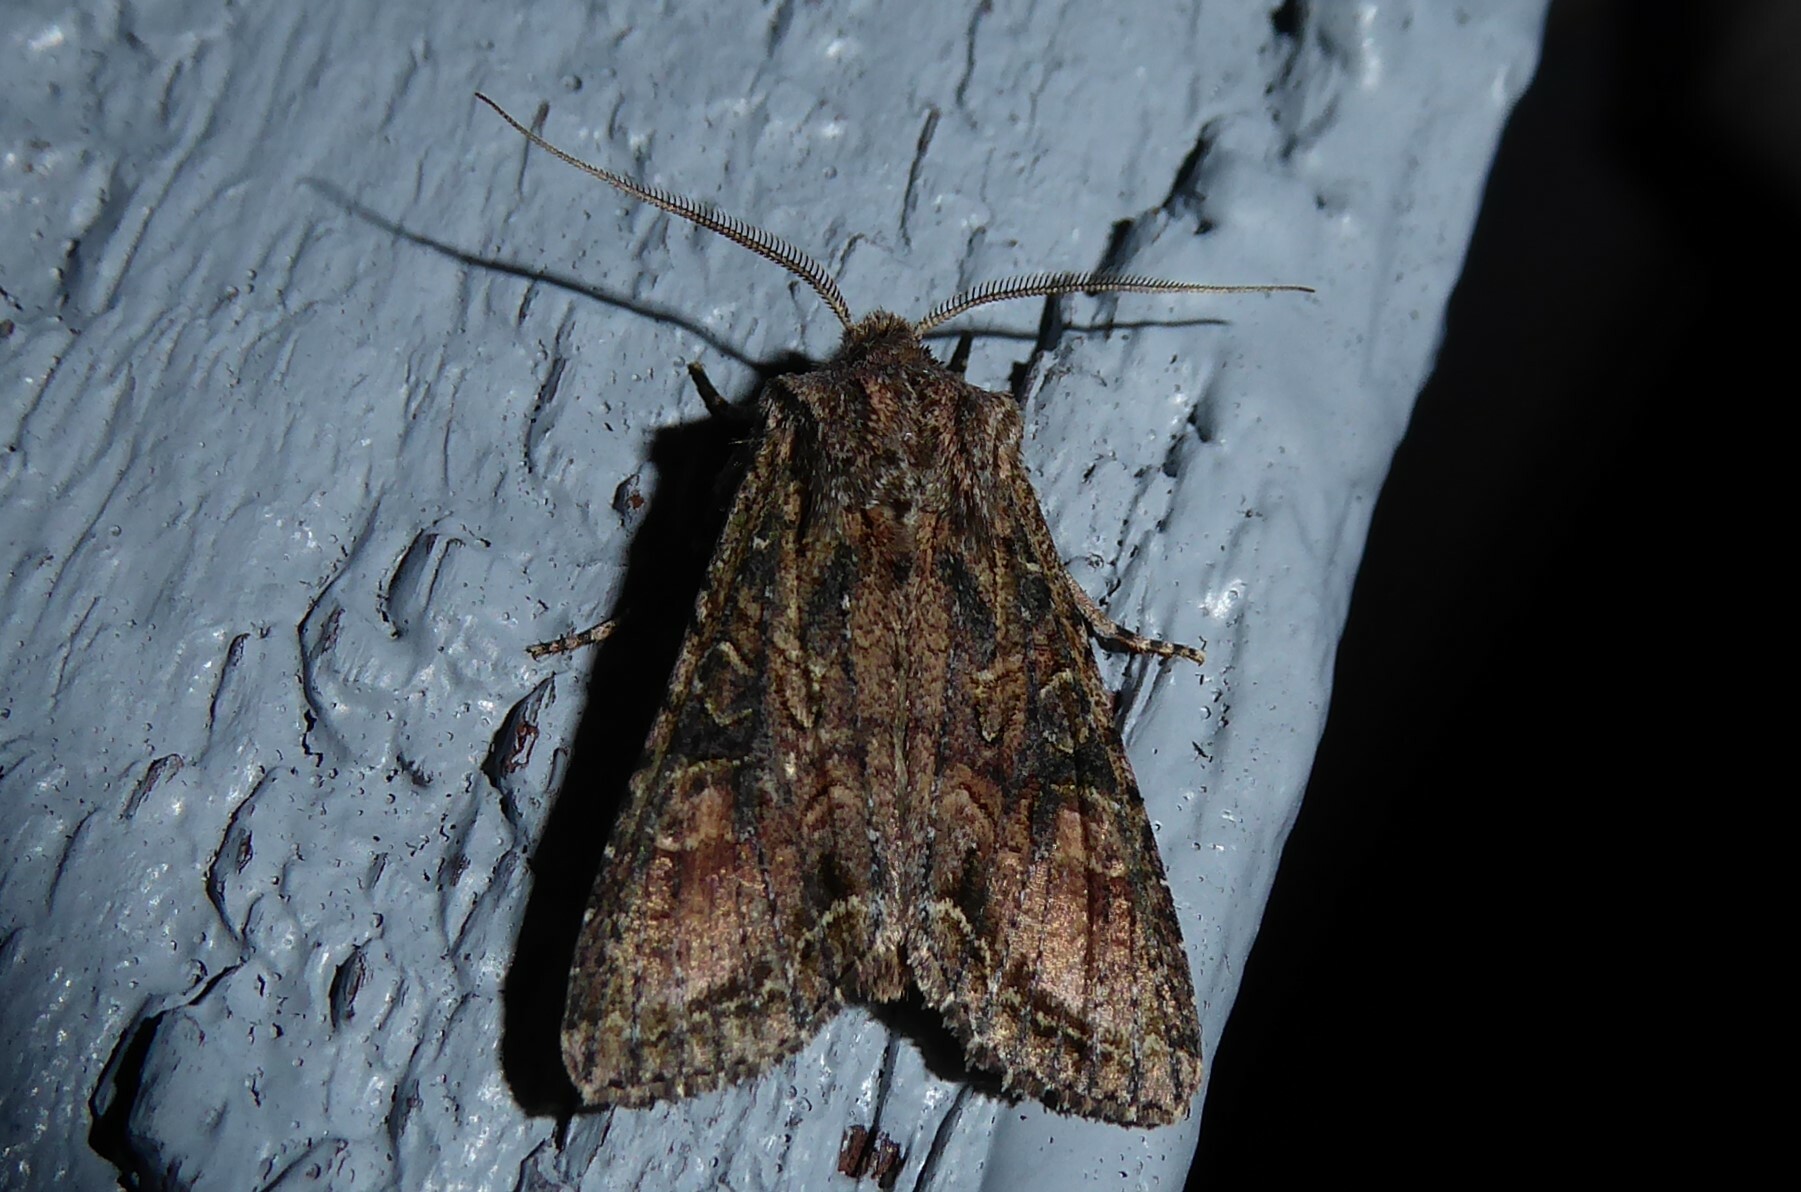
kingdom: Animalia
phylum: Arthropoda
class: Insecta
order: Lepidoptera
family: Noctuidae
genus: Ichneutica
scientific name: Ichneutica mutans
